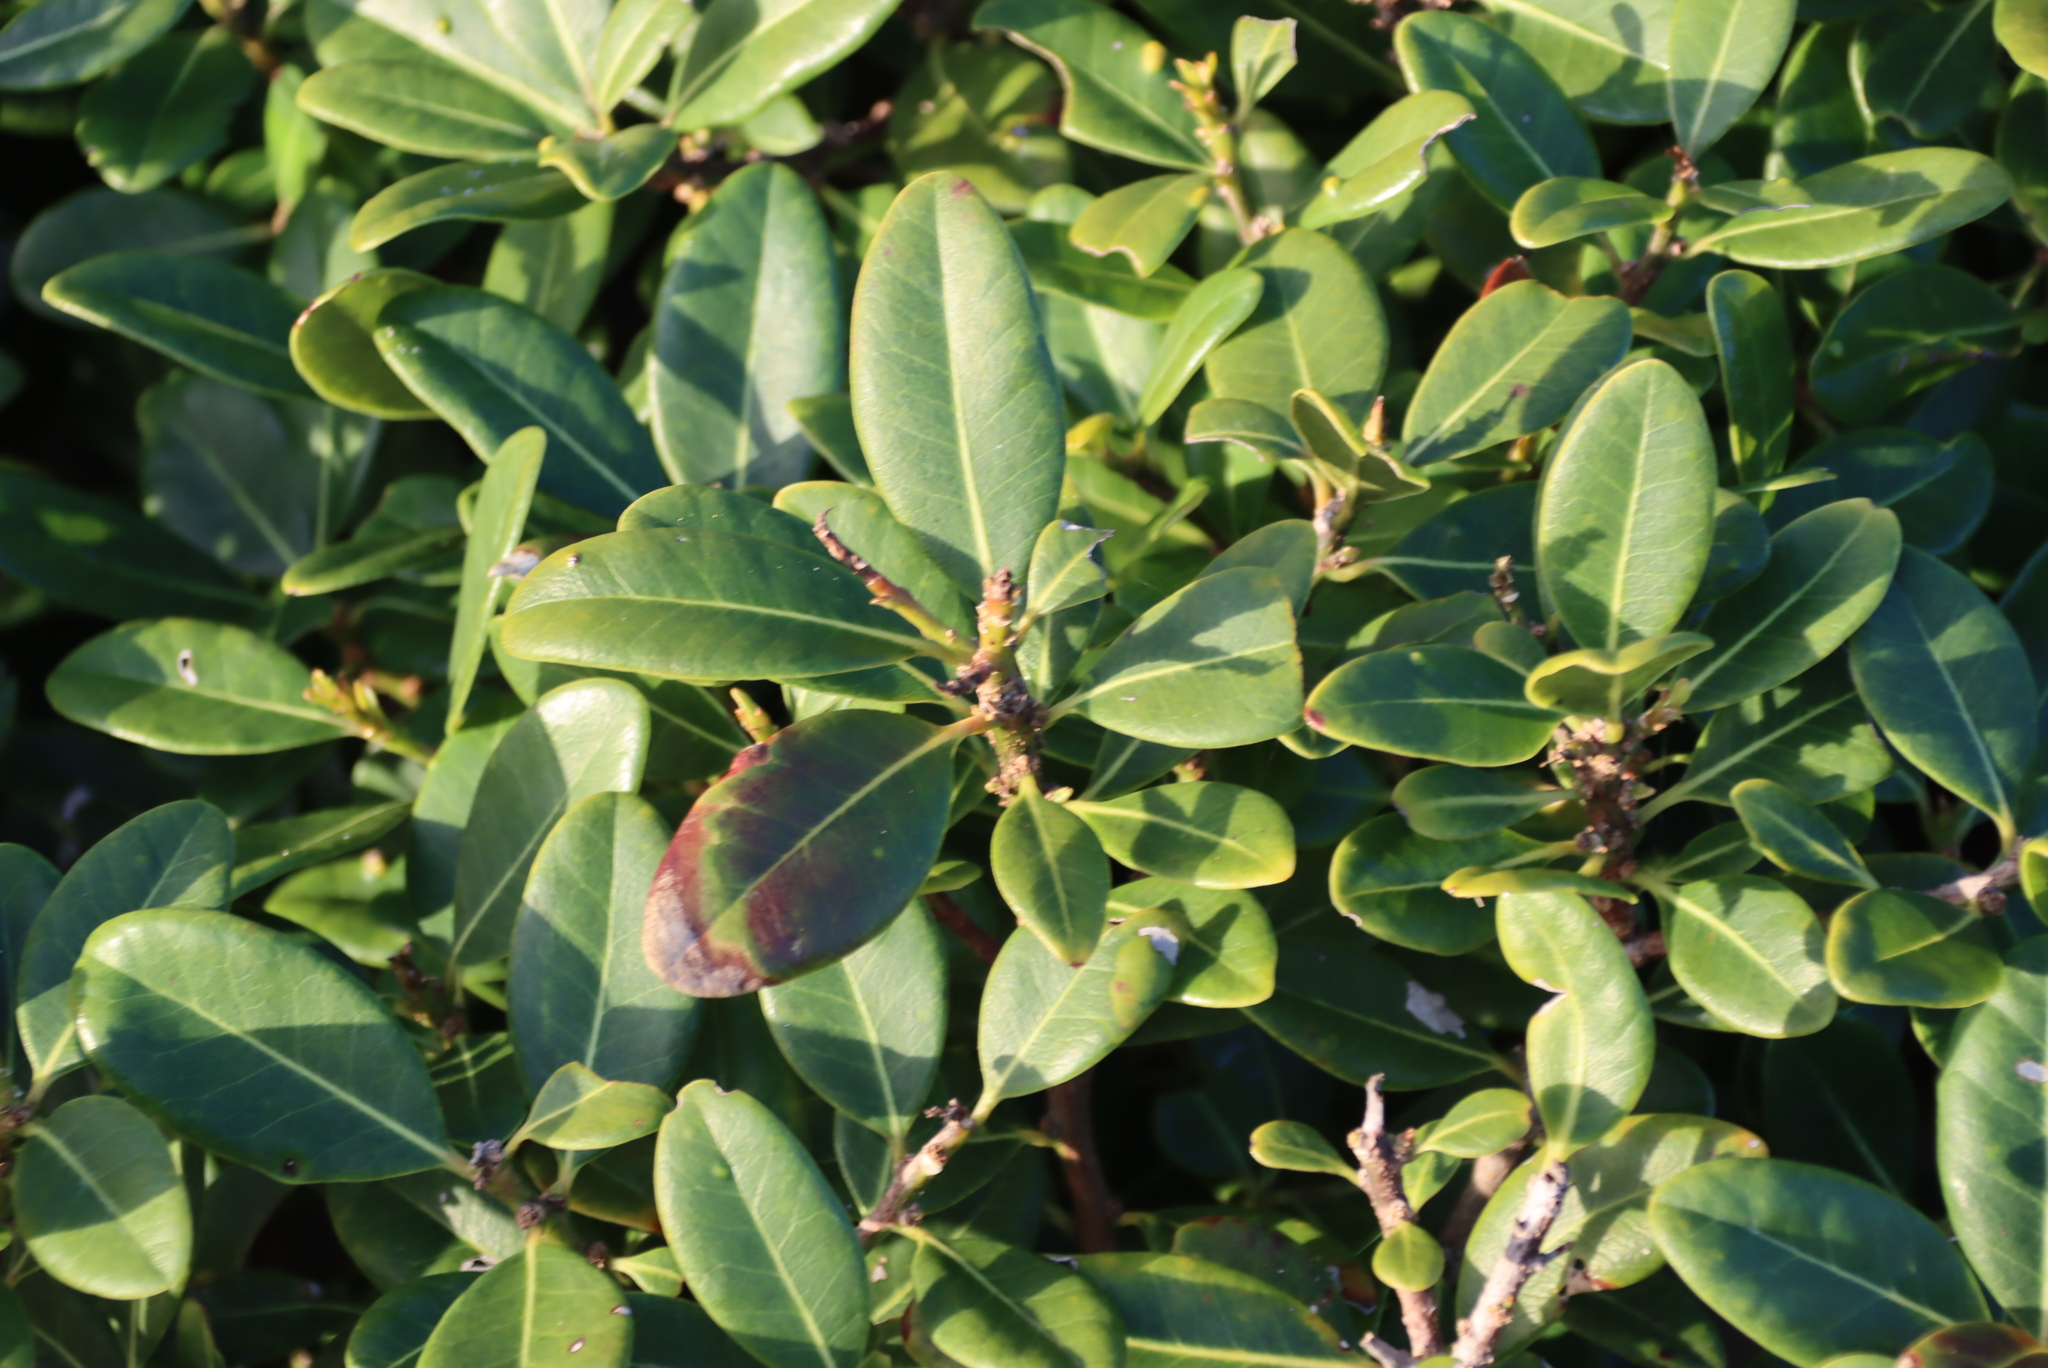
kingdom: Plantae
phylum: Tracheophyta
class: Magnoliopsida
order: Ericales
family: Sapotaceae
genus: Sideroxylon
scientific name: Sideroxylon inerme
